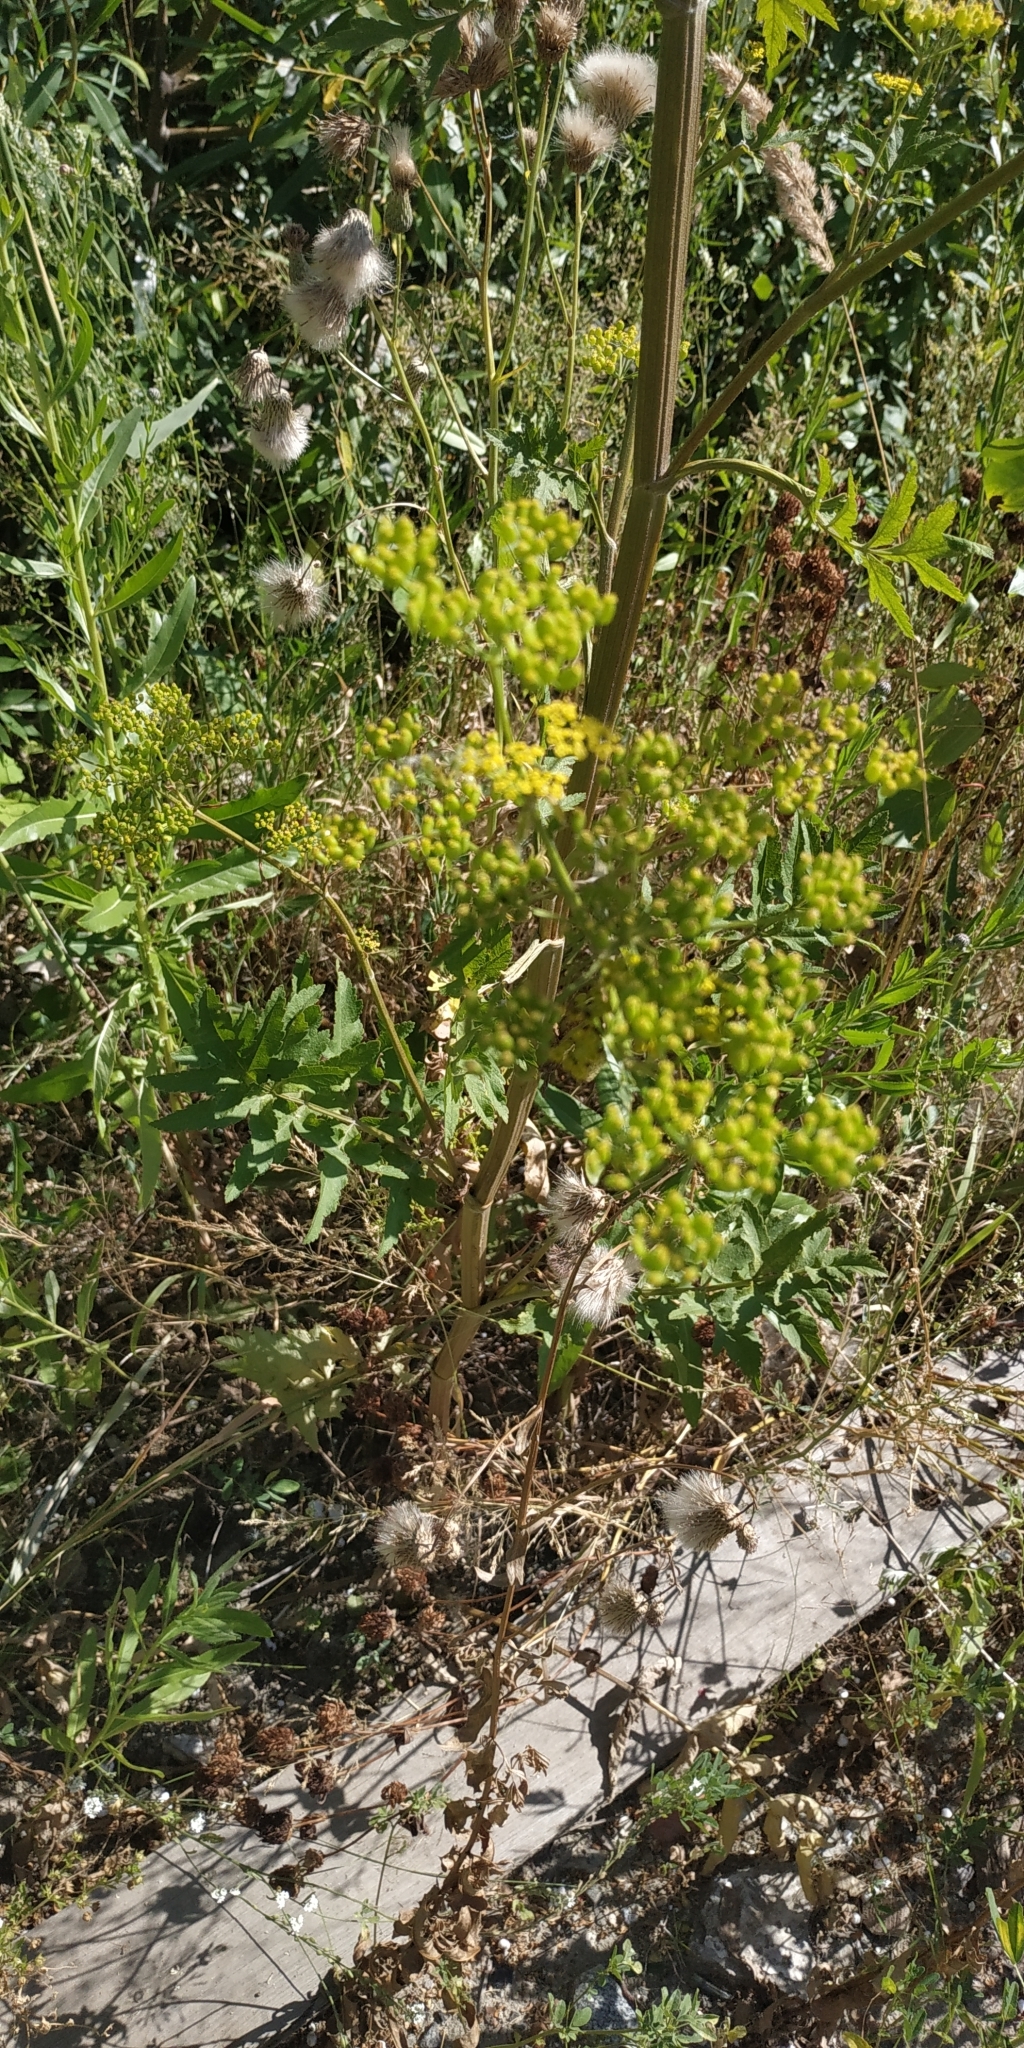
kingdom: Plantae
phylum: Tracheophyta
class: Magnoliopsida
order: Apiales
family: Apiaceae
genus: Pastinaca
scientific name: Pastinaca sativa
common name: Wild parsnip
